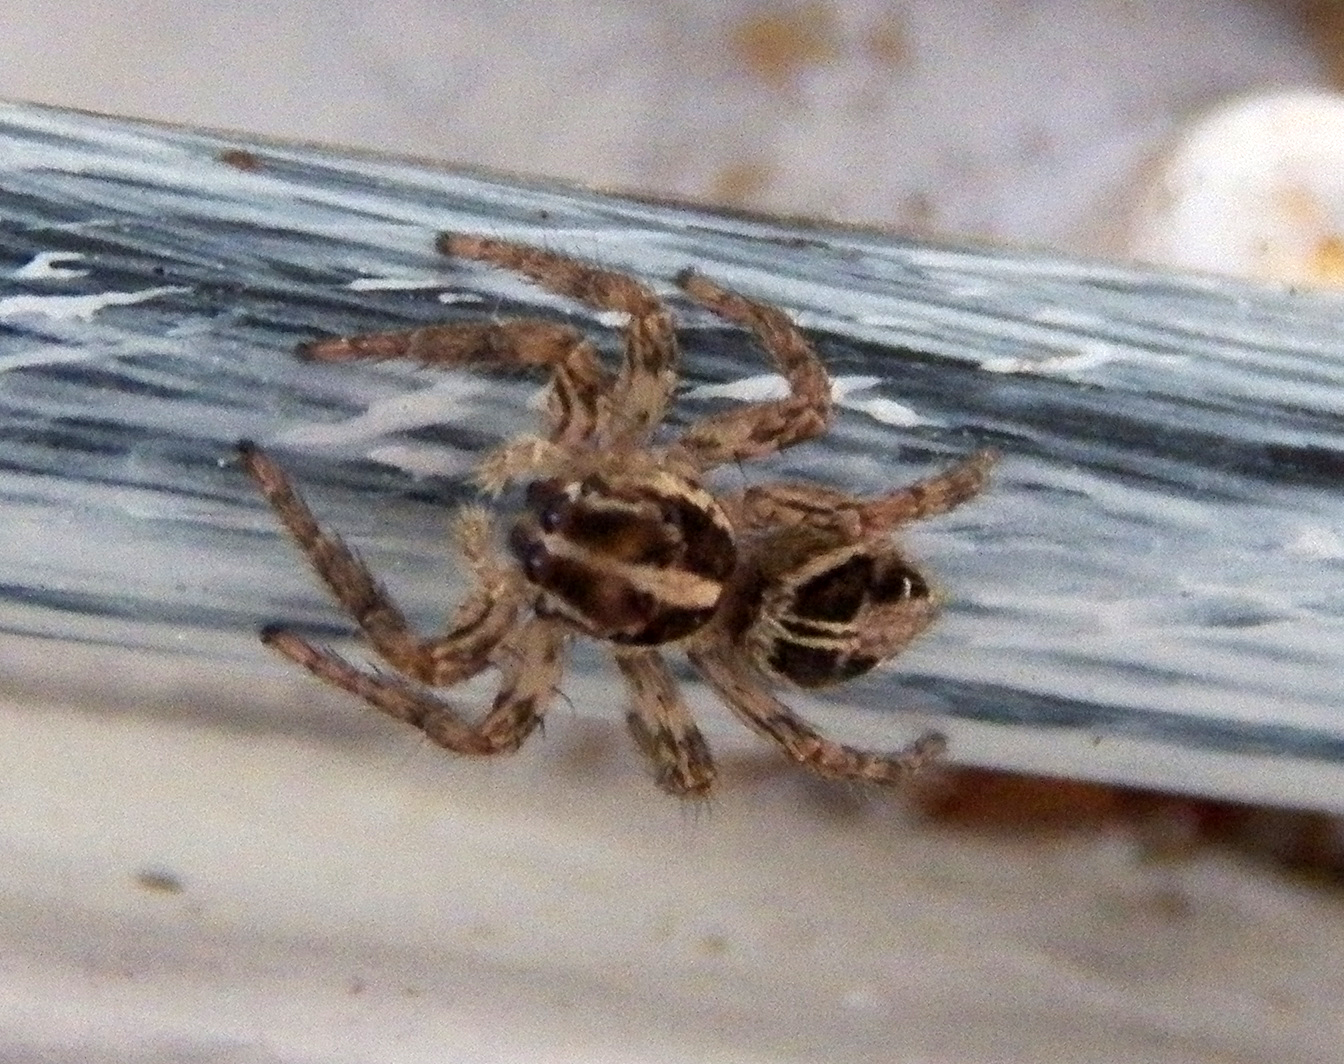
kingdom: Animalia
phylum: Arthropoda
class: Arachnida
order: Araneae
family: Salticidae
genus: Plexippus
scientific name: Plexippus paykulli
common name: Pantropical jumper
